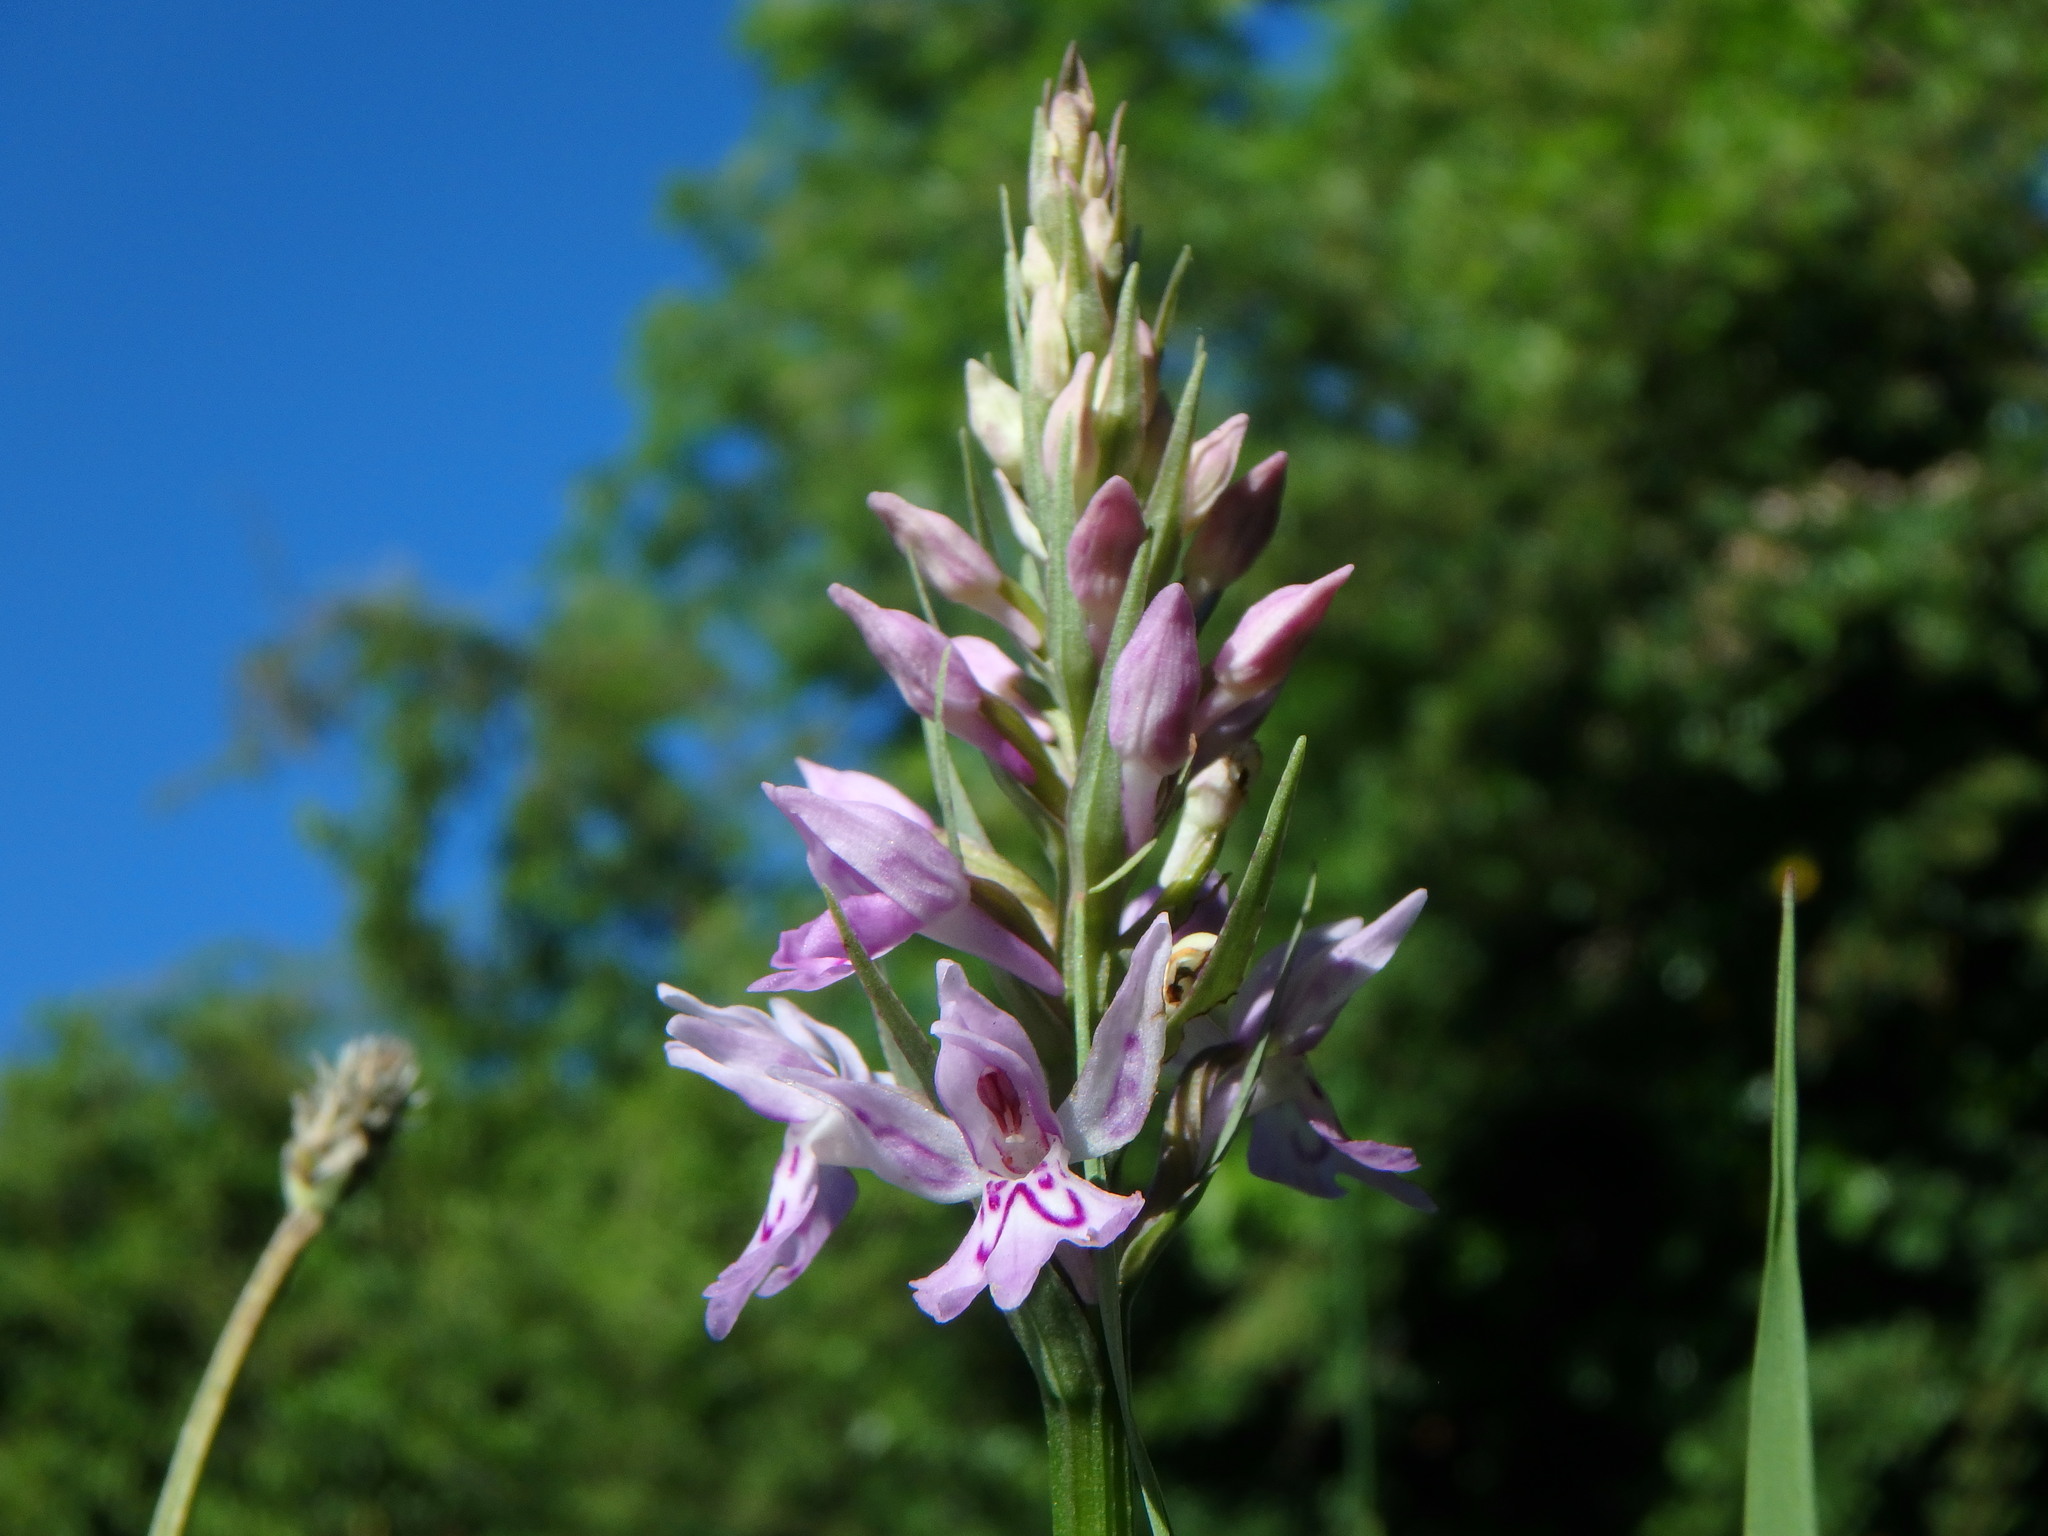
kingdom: Plantae
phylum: Tracheophyta
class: Liliopsida
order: Asparagales
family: Orchidaceae
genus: Dactylorhiza
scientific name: Dactylorhiza maculata
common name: Heath spotted-orchid
